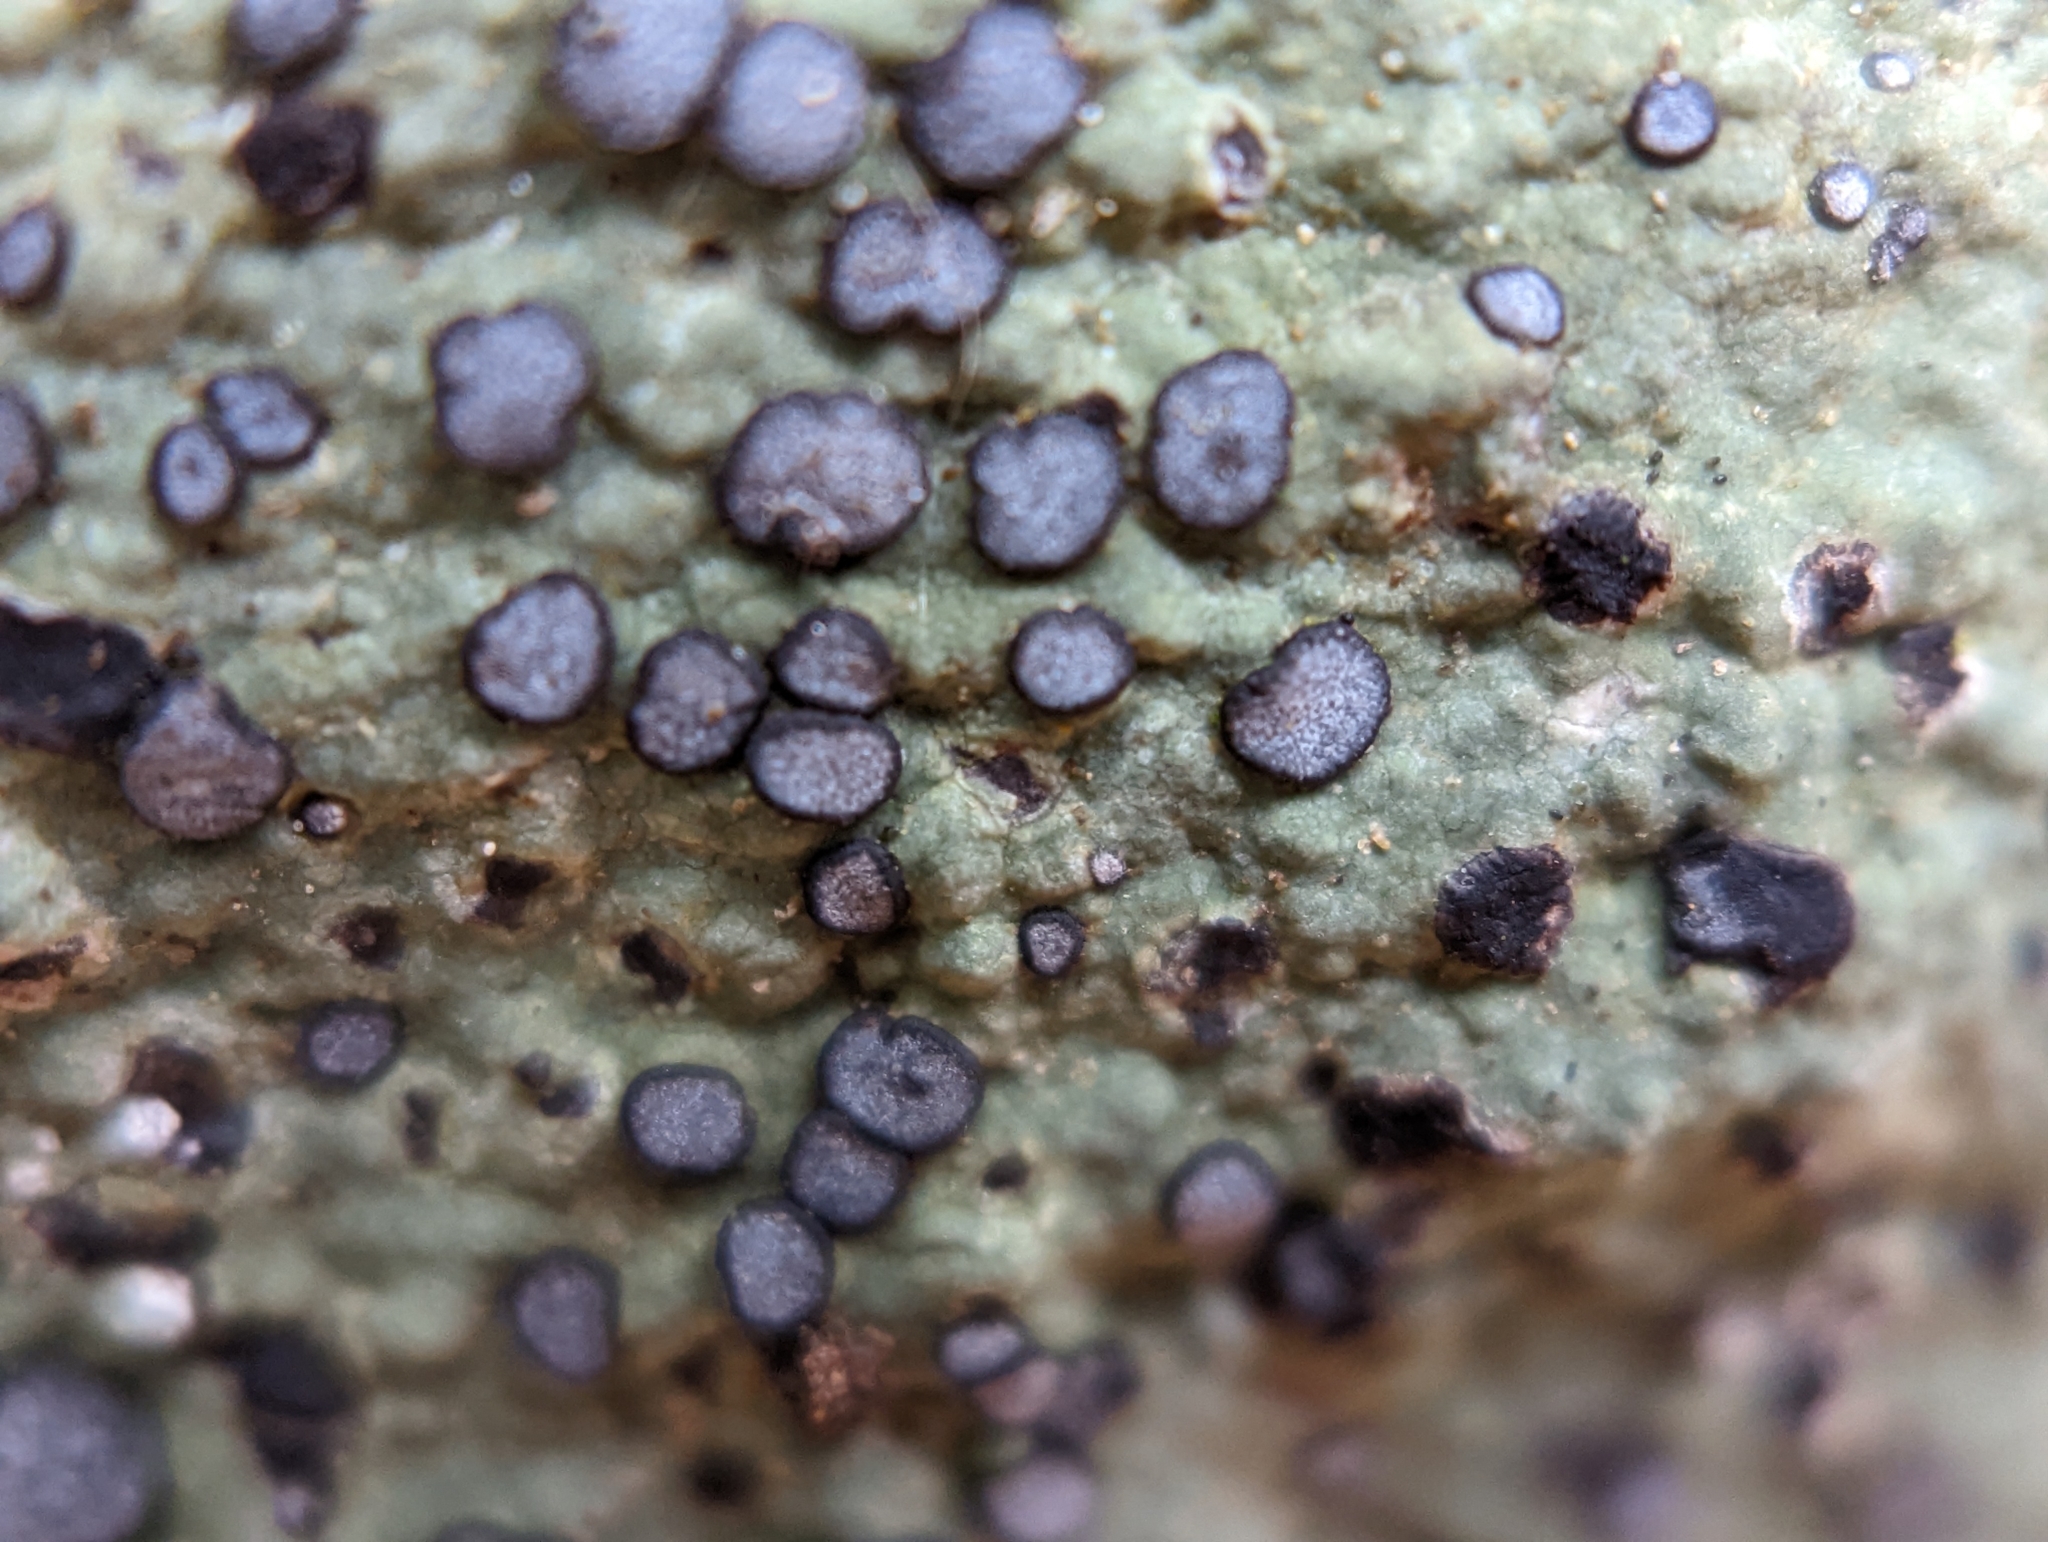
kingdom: Fungi
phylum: Ascomycota
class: Lecanoromycetes
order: Lecideales
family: Lecideaceae
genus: Porpidia
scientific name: Porpidia albocaerulescens
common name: Smokey-eyed boulder lichen
